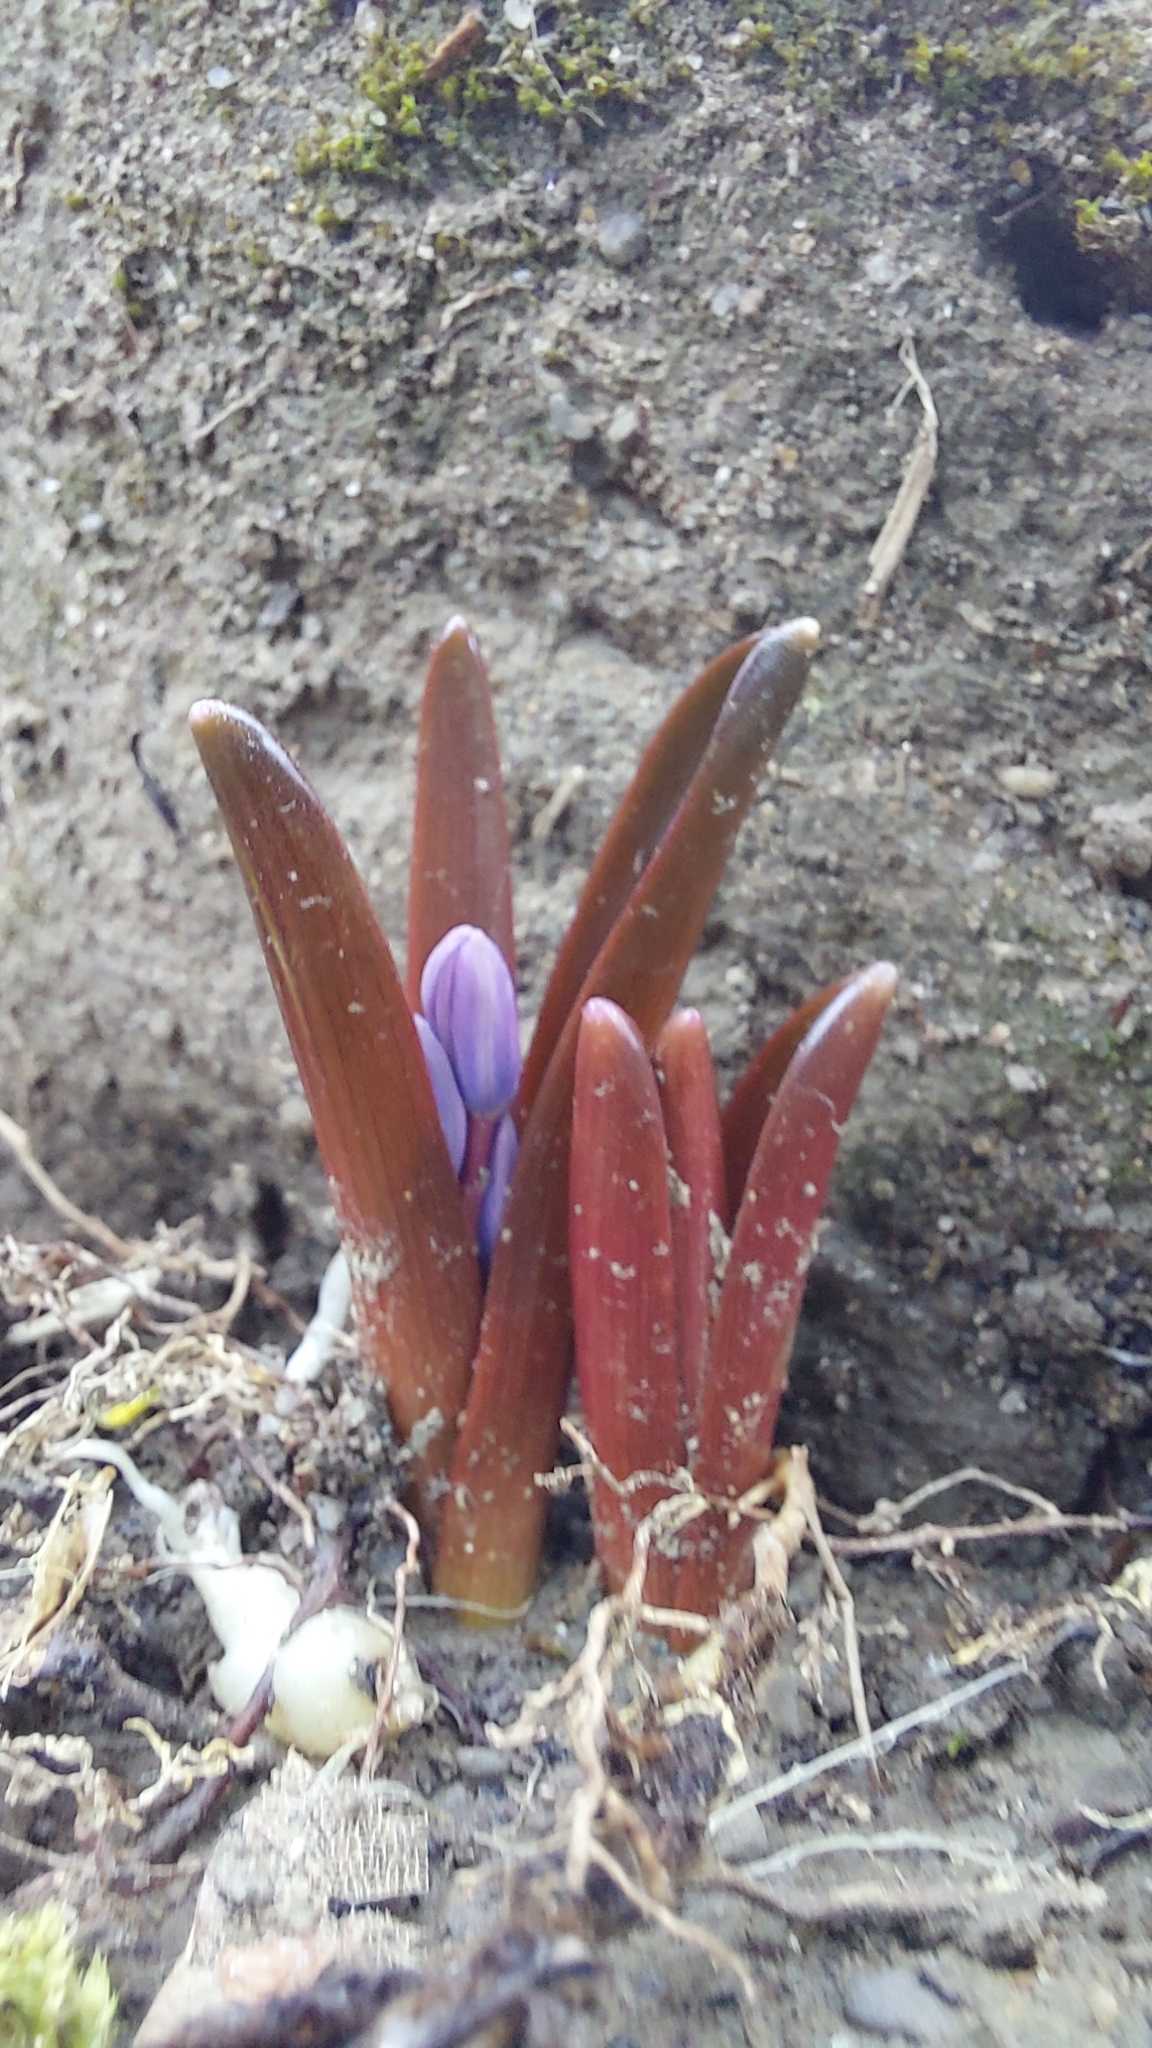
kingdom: Plantae
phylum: Tracheophyta
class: Liliopsida
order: Asparagales
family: Asparagaceae
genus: Scilla
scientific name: Scilla bifolia
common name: Alpine squill
